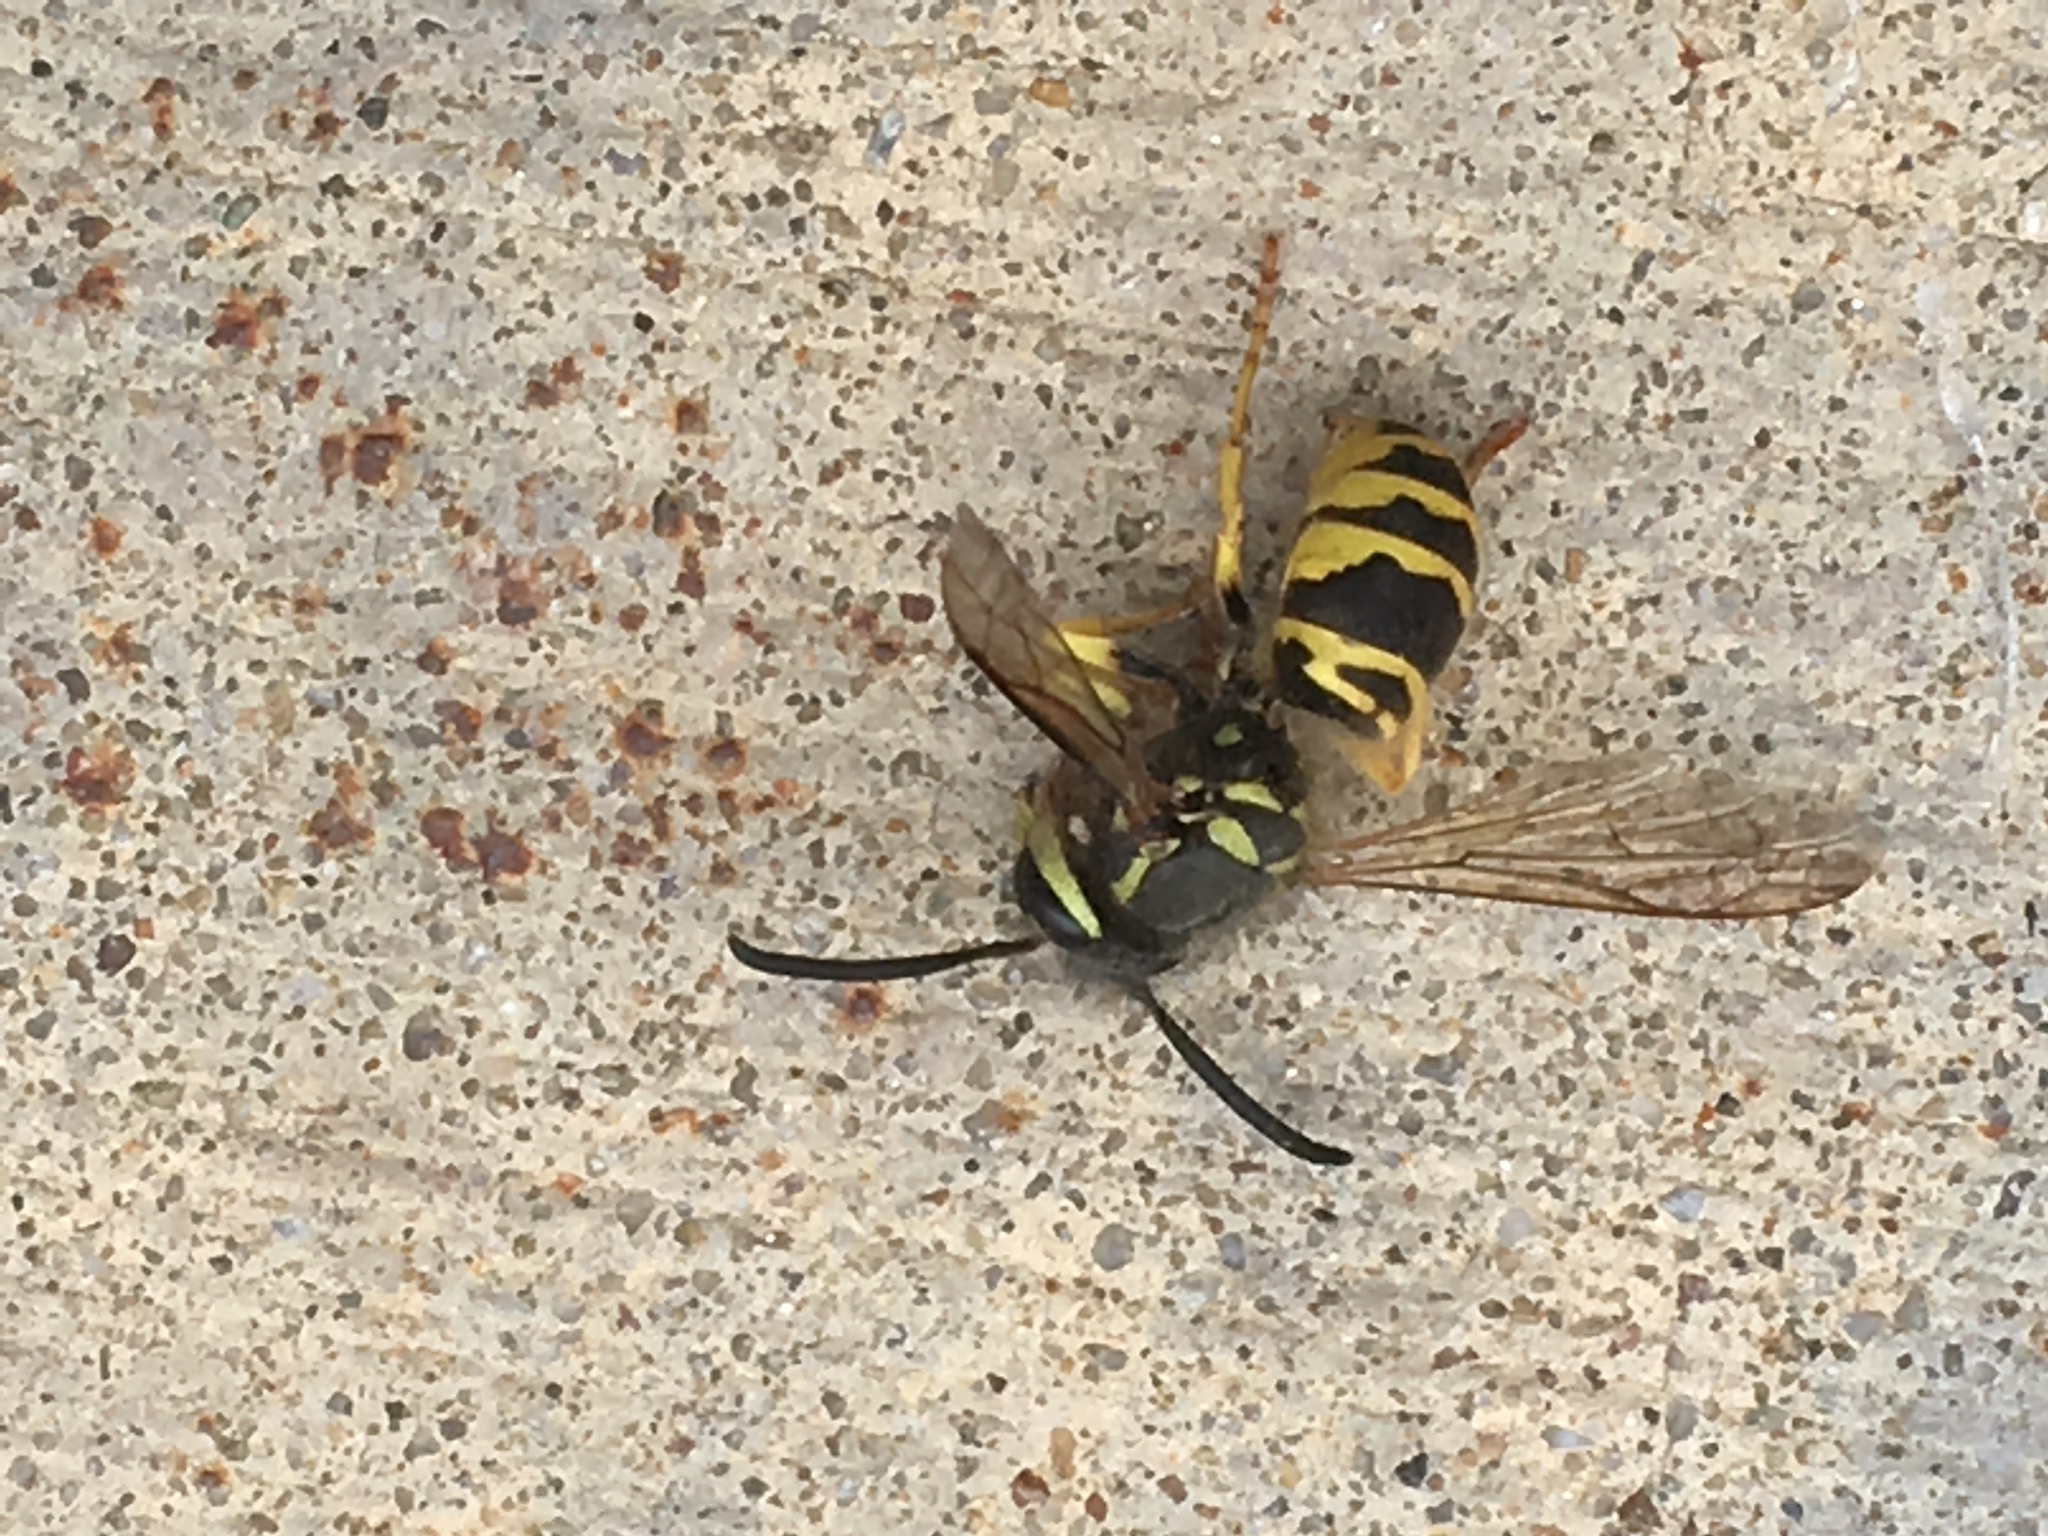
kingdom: Animalia
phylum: Arthropoda
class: Insecta
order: Hymenoptera
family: Vespidae
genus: Vespula
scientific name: Vespula maculifrons
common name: Eastern yellowjacket
